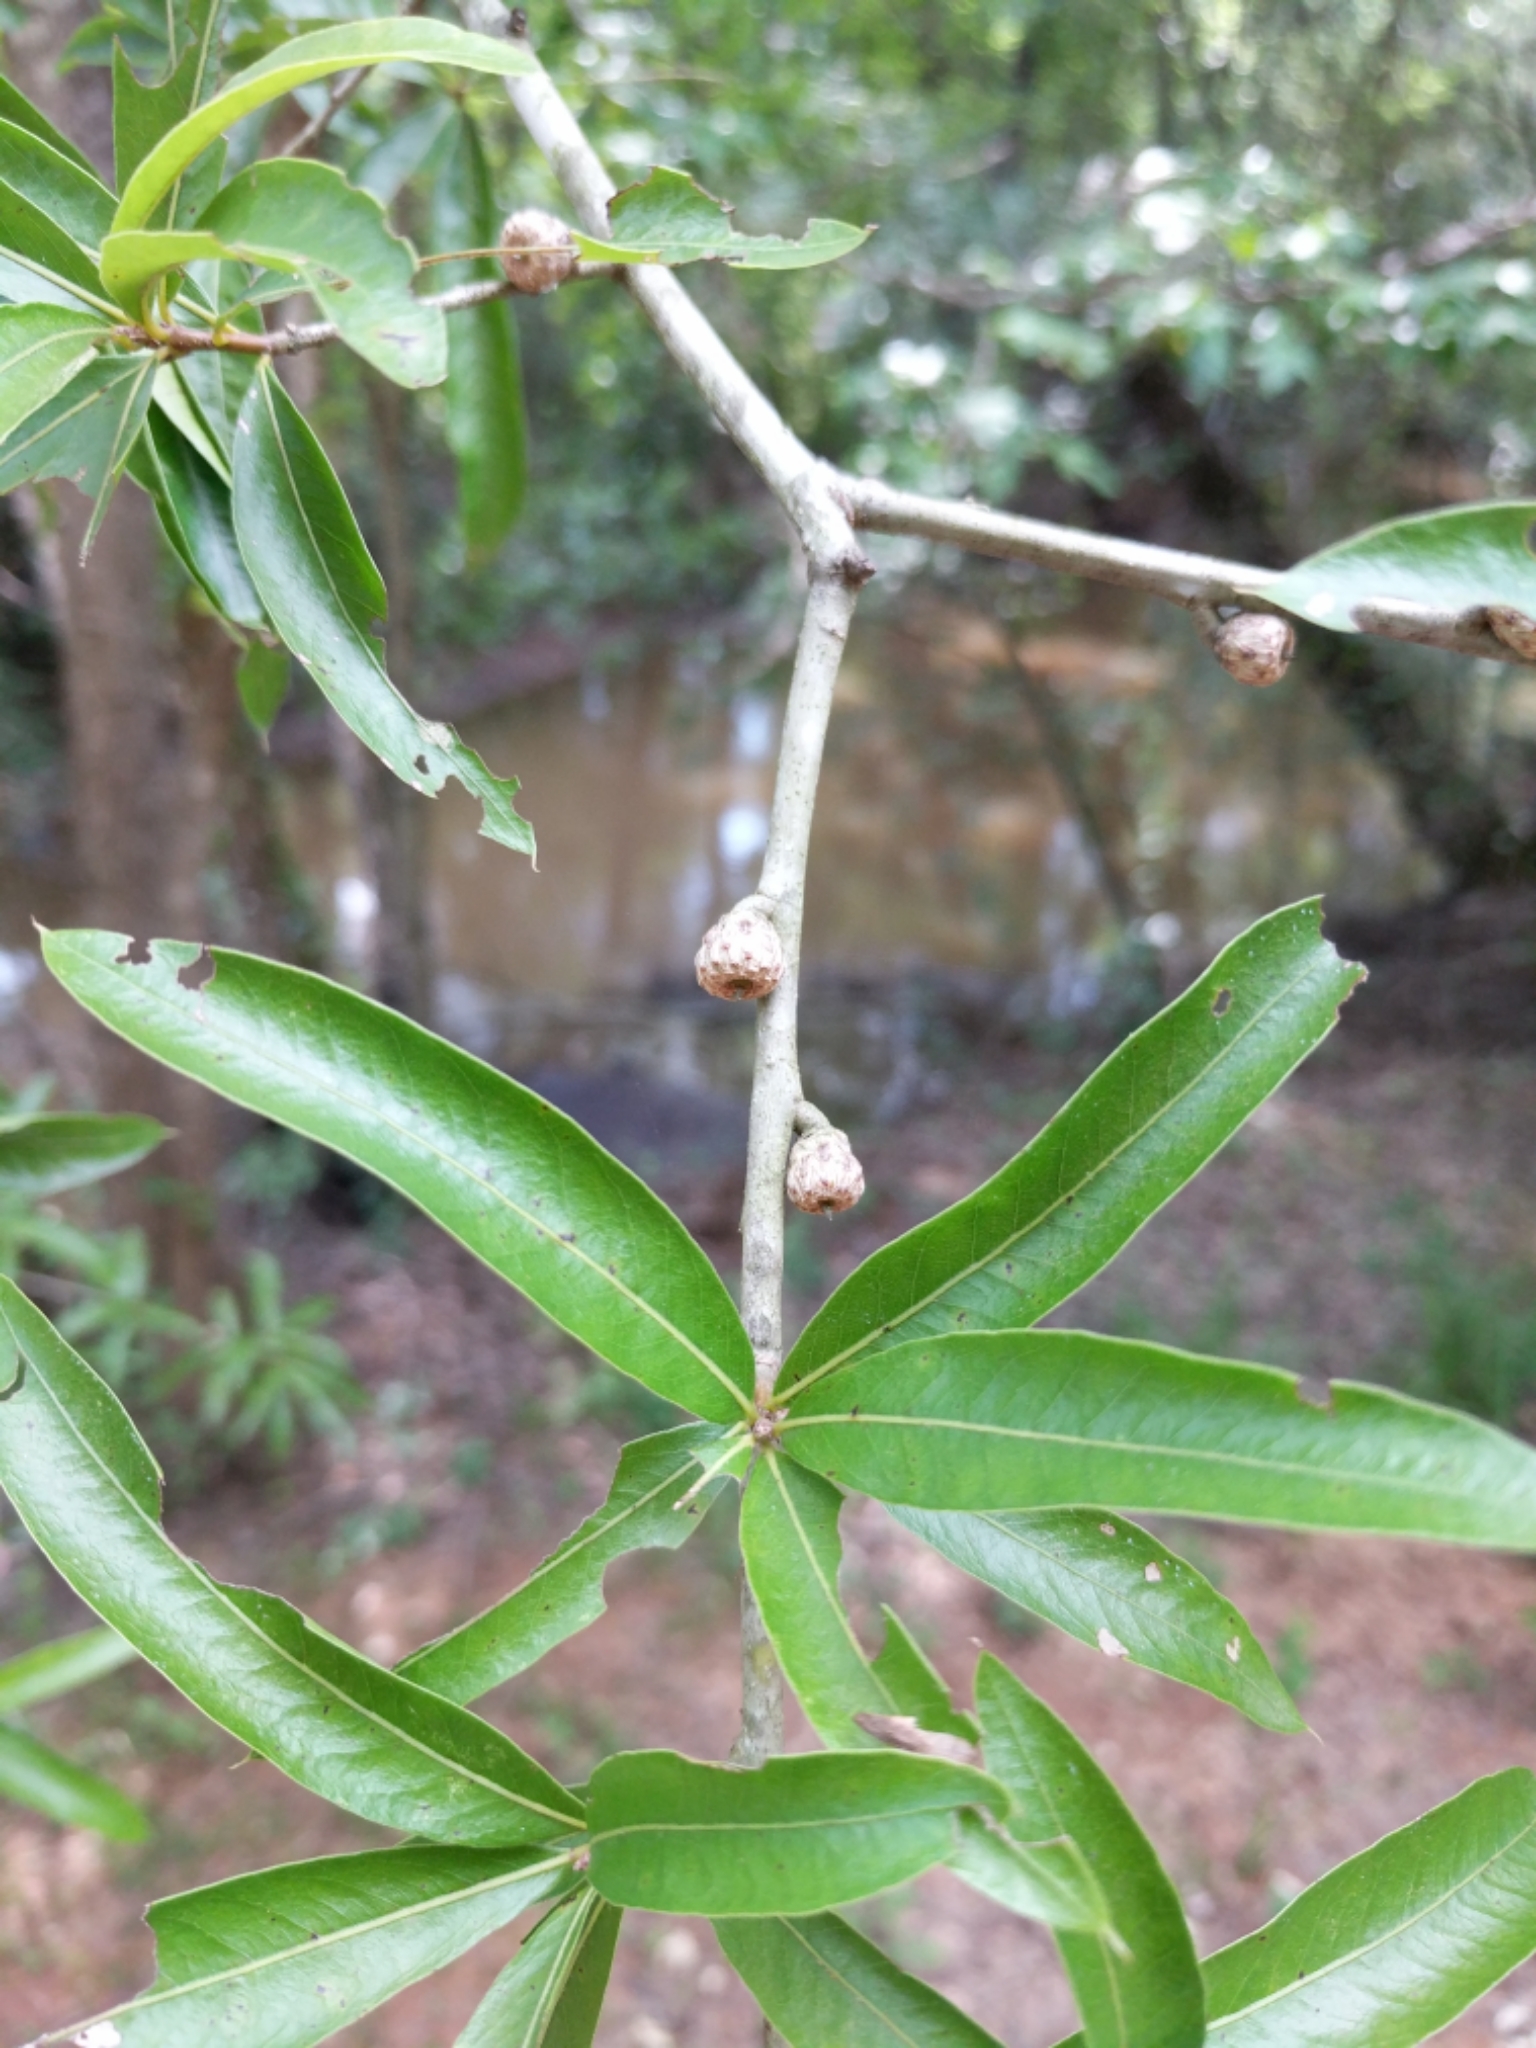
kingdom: Plantae
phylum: Tracheophyta
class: Magnoliopsida
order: Fagales
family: Fagaceae
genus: Quercus
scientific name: Quercus phellos
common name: Willow oak
